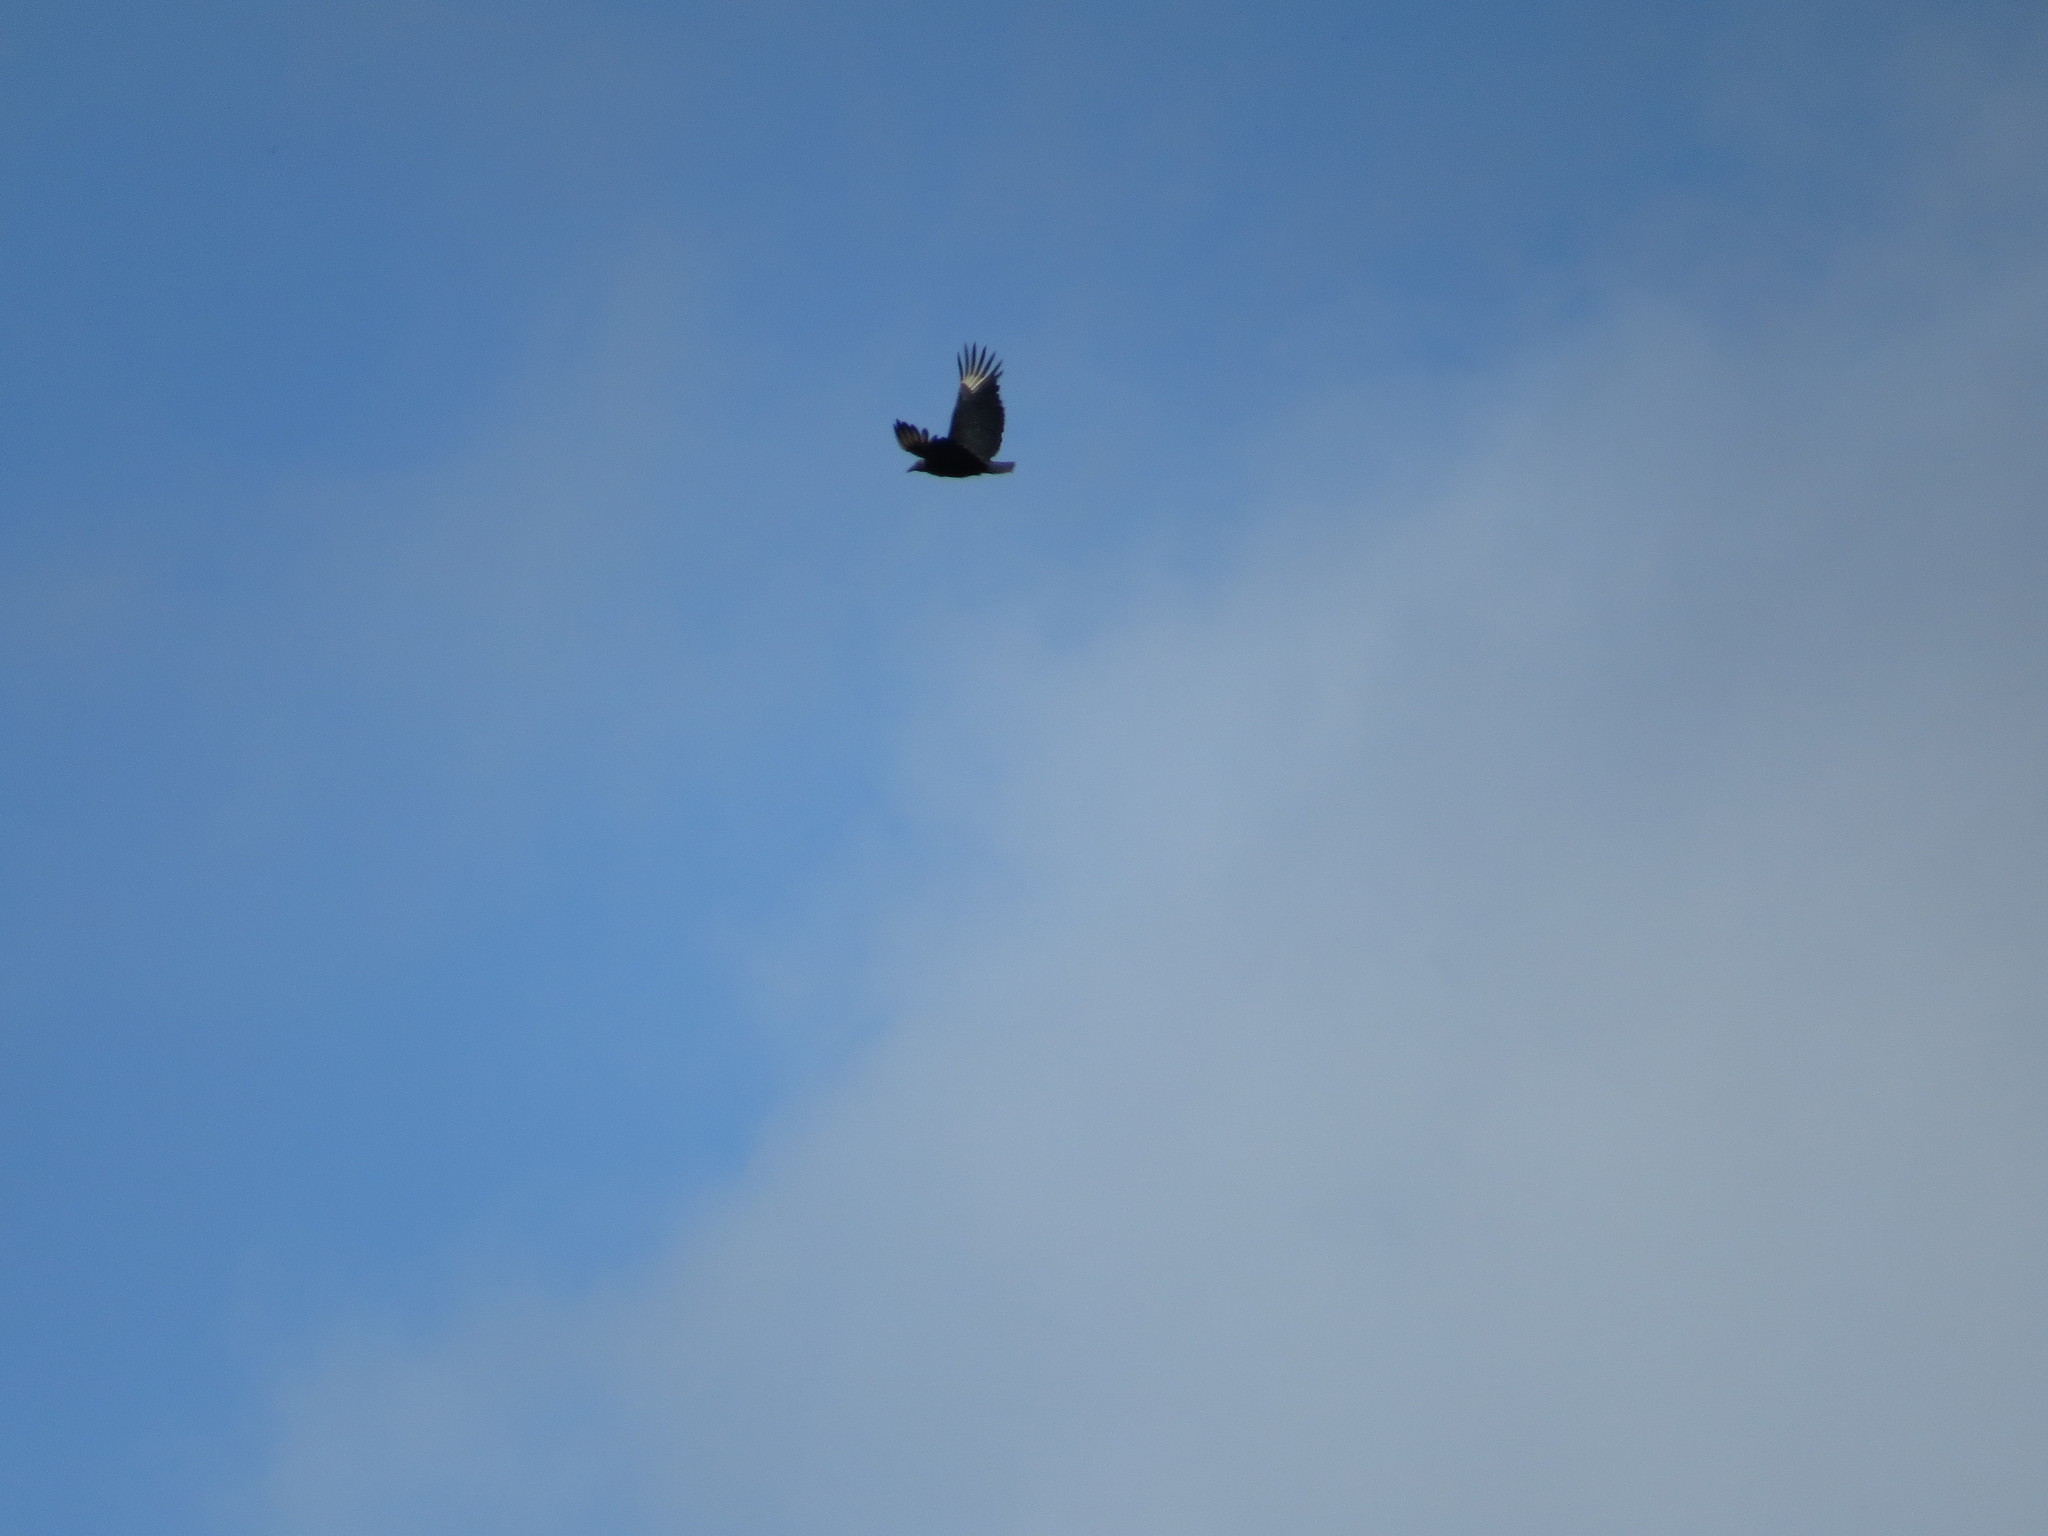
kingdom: Animalia
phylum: Chordata
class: Aves
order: Accipitriformes
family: Cathartidae
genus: Coragyps
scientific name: Coragyps atratus
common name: Black vulture
